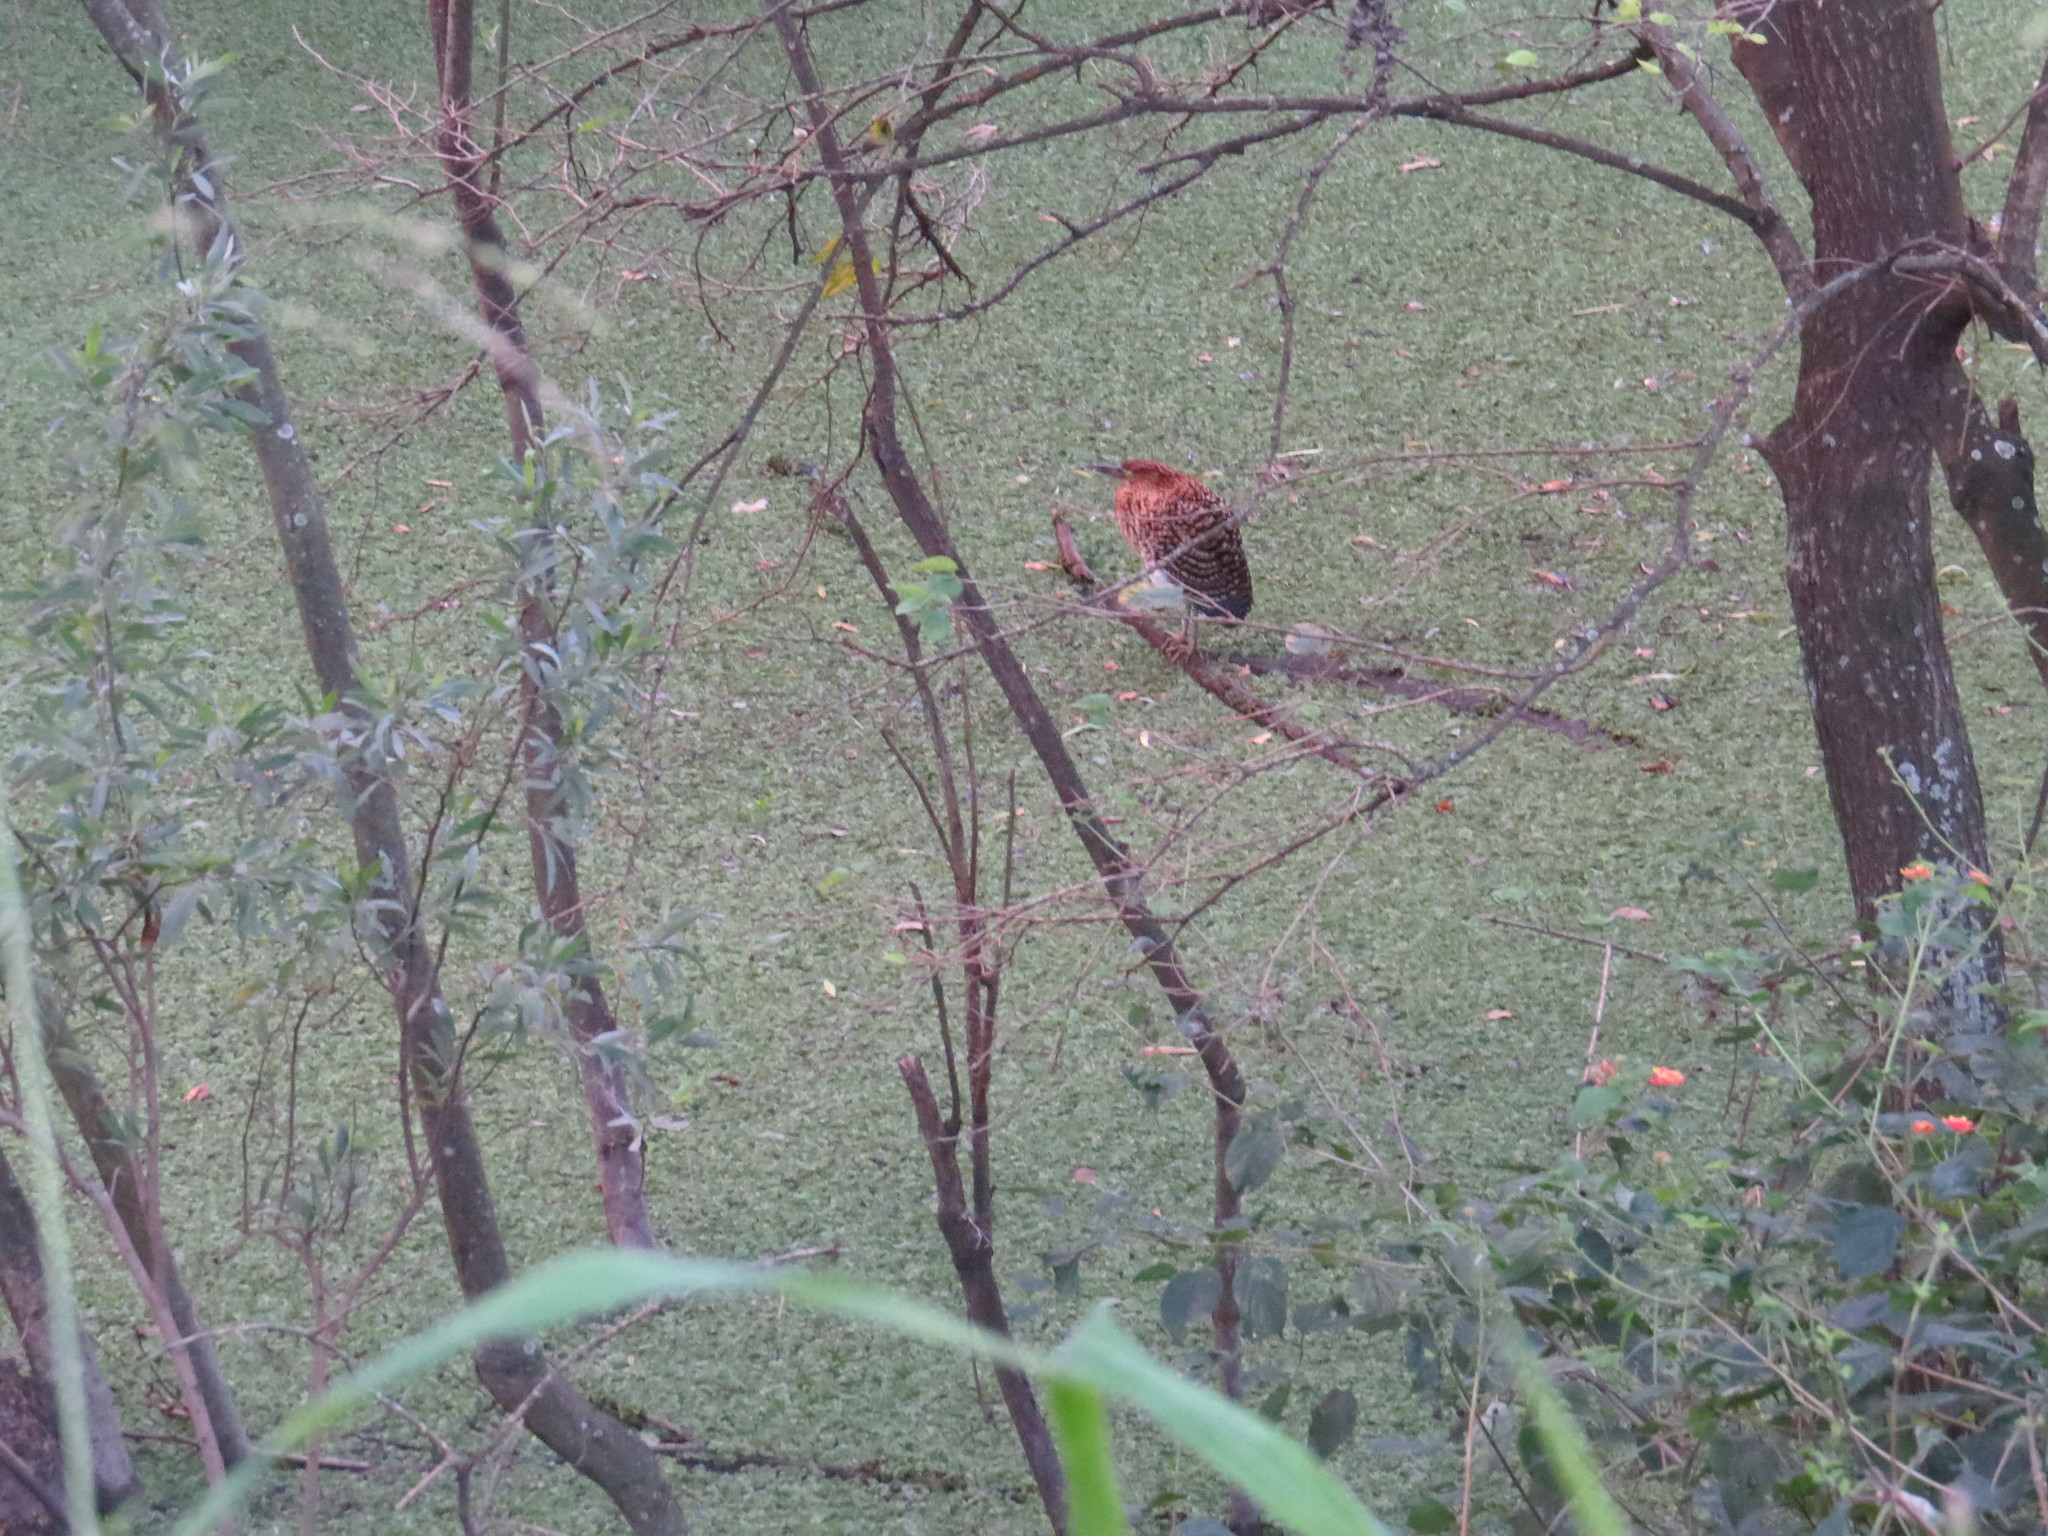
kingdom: Animalia
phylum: Chordata
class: Aves
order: Pelecaniformes
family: Ardeidae
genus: Tigrisoma
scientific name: Tigrisoma lineatum
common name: Rufescent tiger-heron
